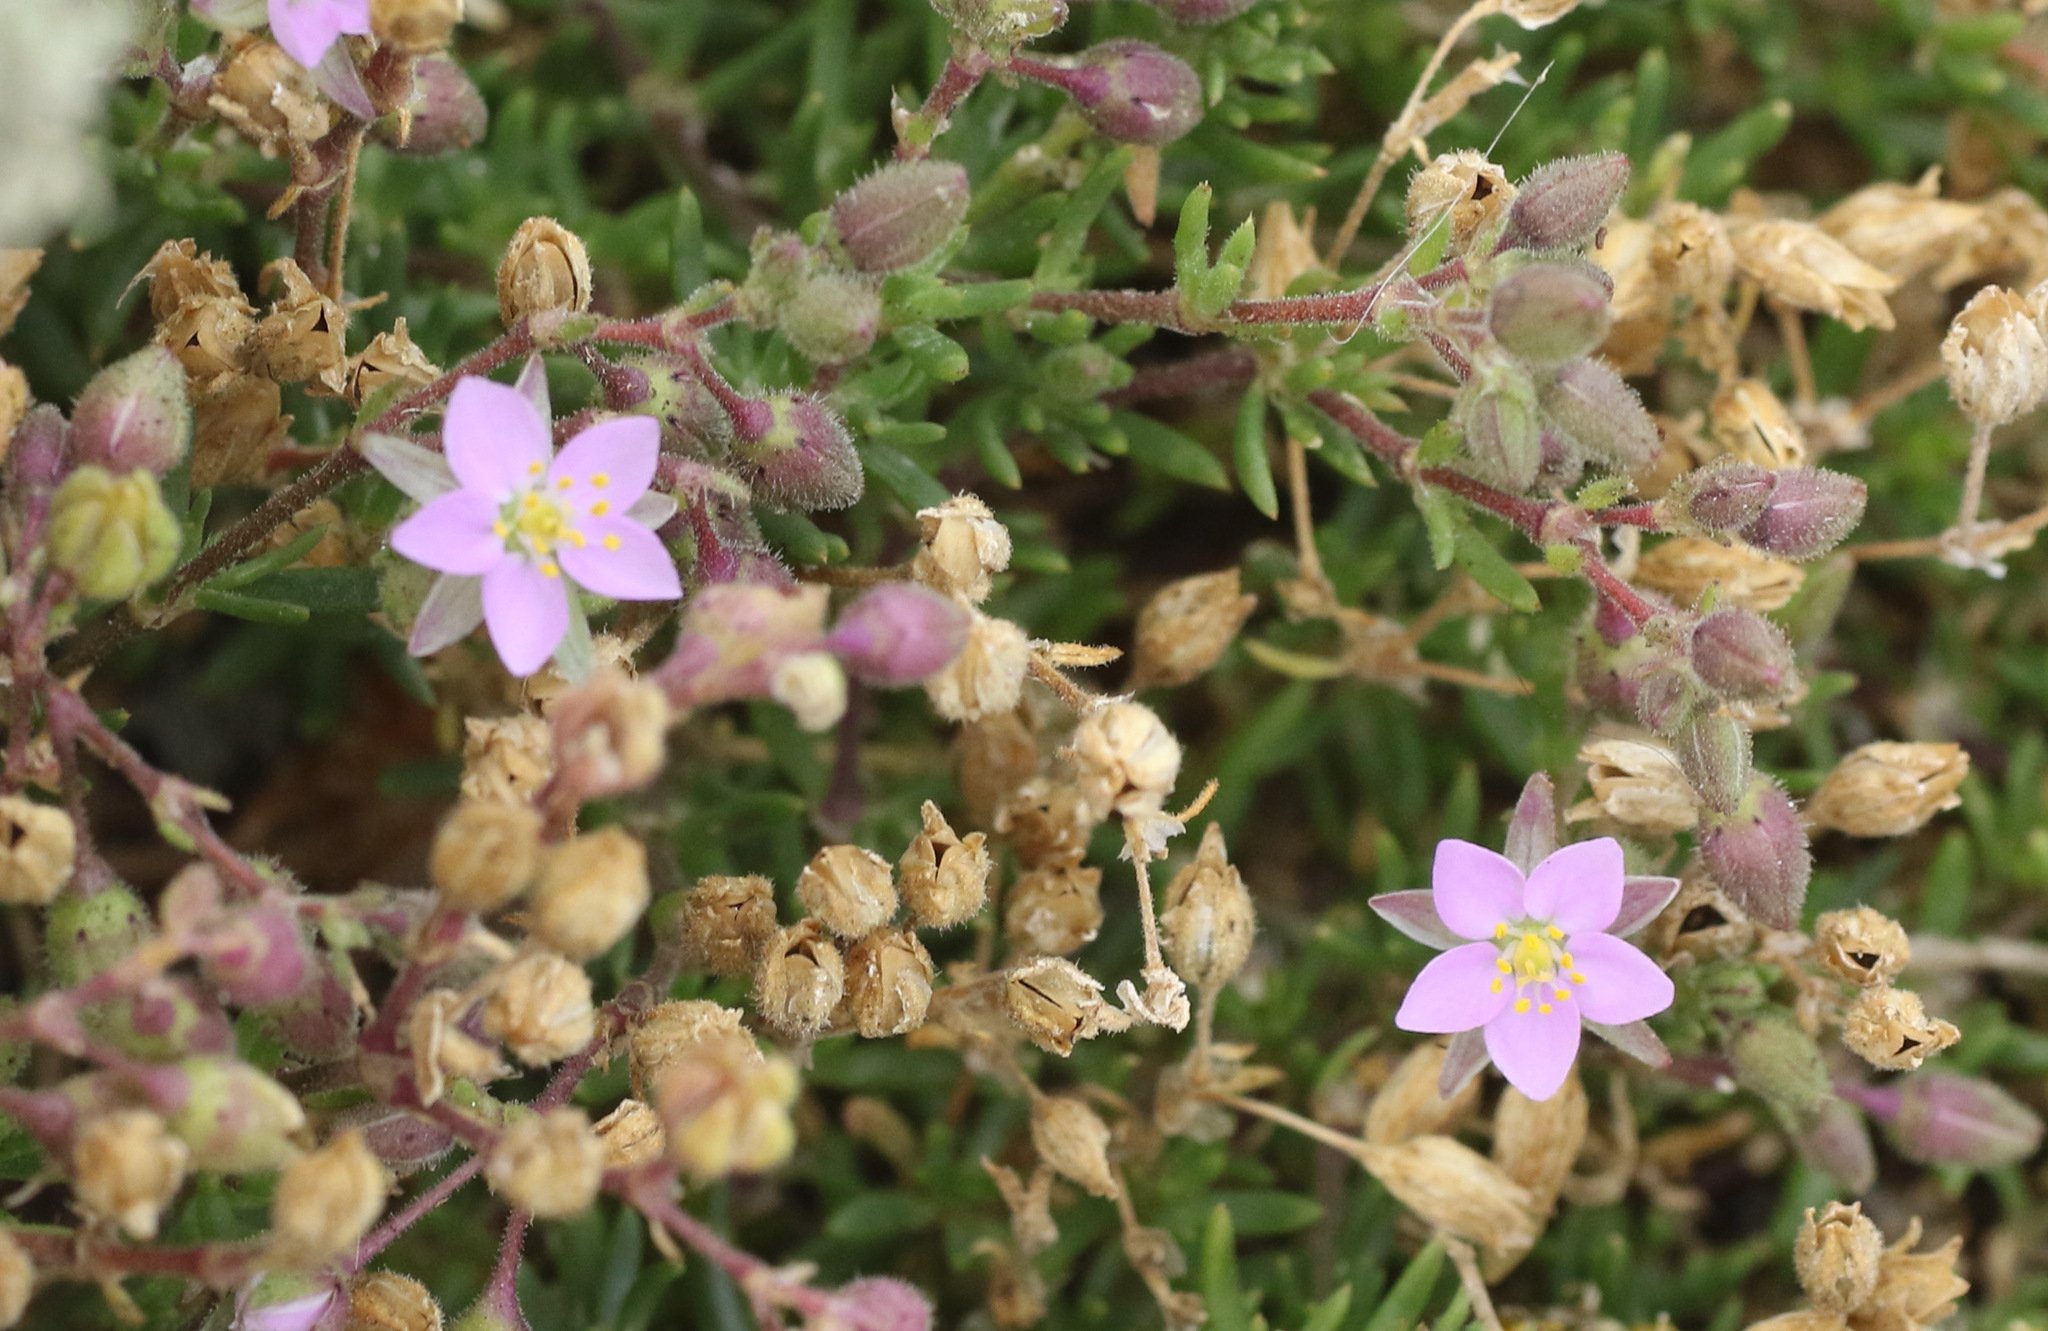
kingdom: Plantae
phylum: Tracheophyta
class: Magnoliopsida
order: Caryophyllales
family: Caryophyllaceae
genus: Spergularia
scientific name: Spergularia media
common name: Greater sea-spurrey
